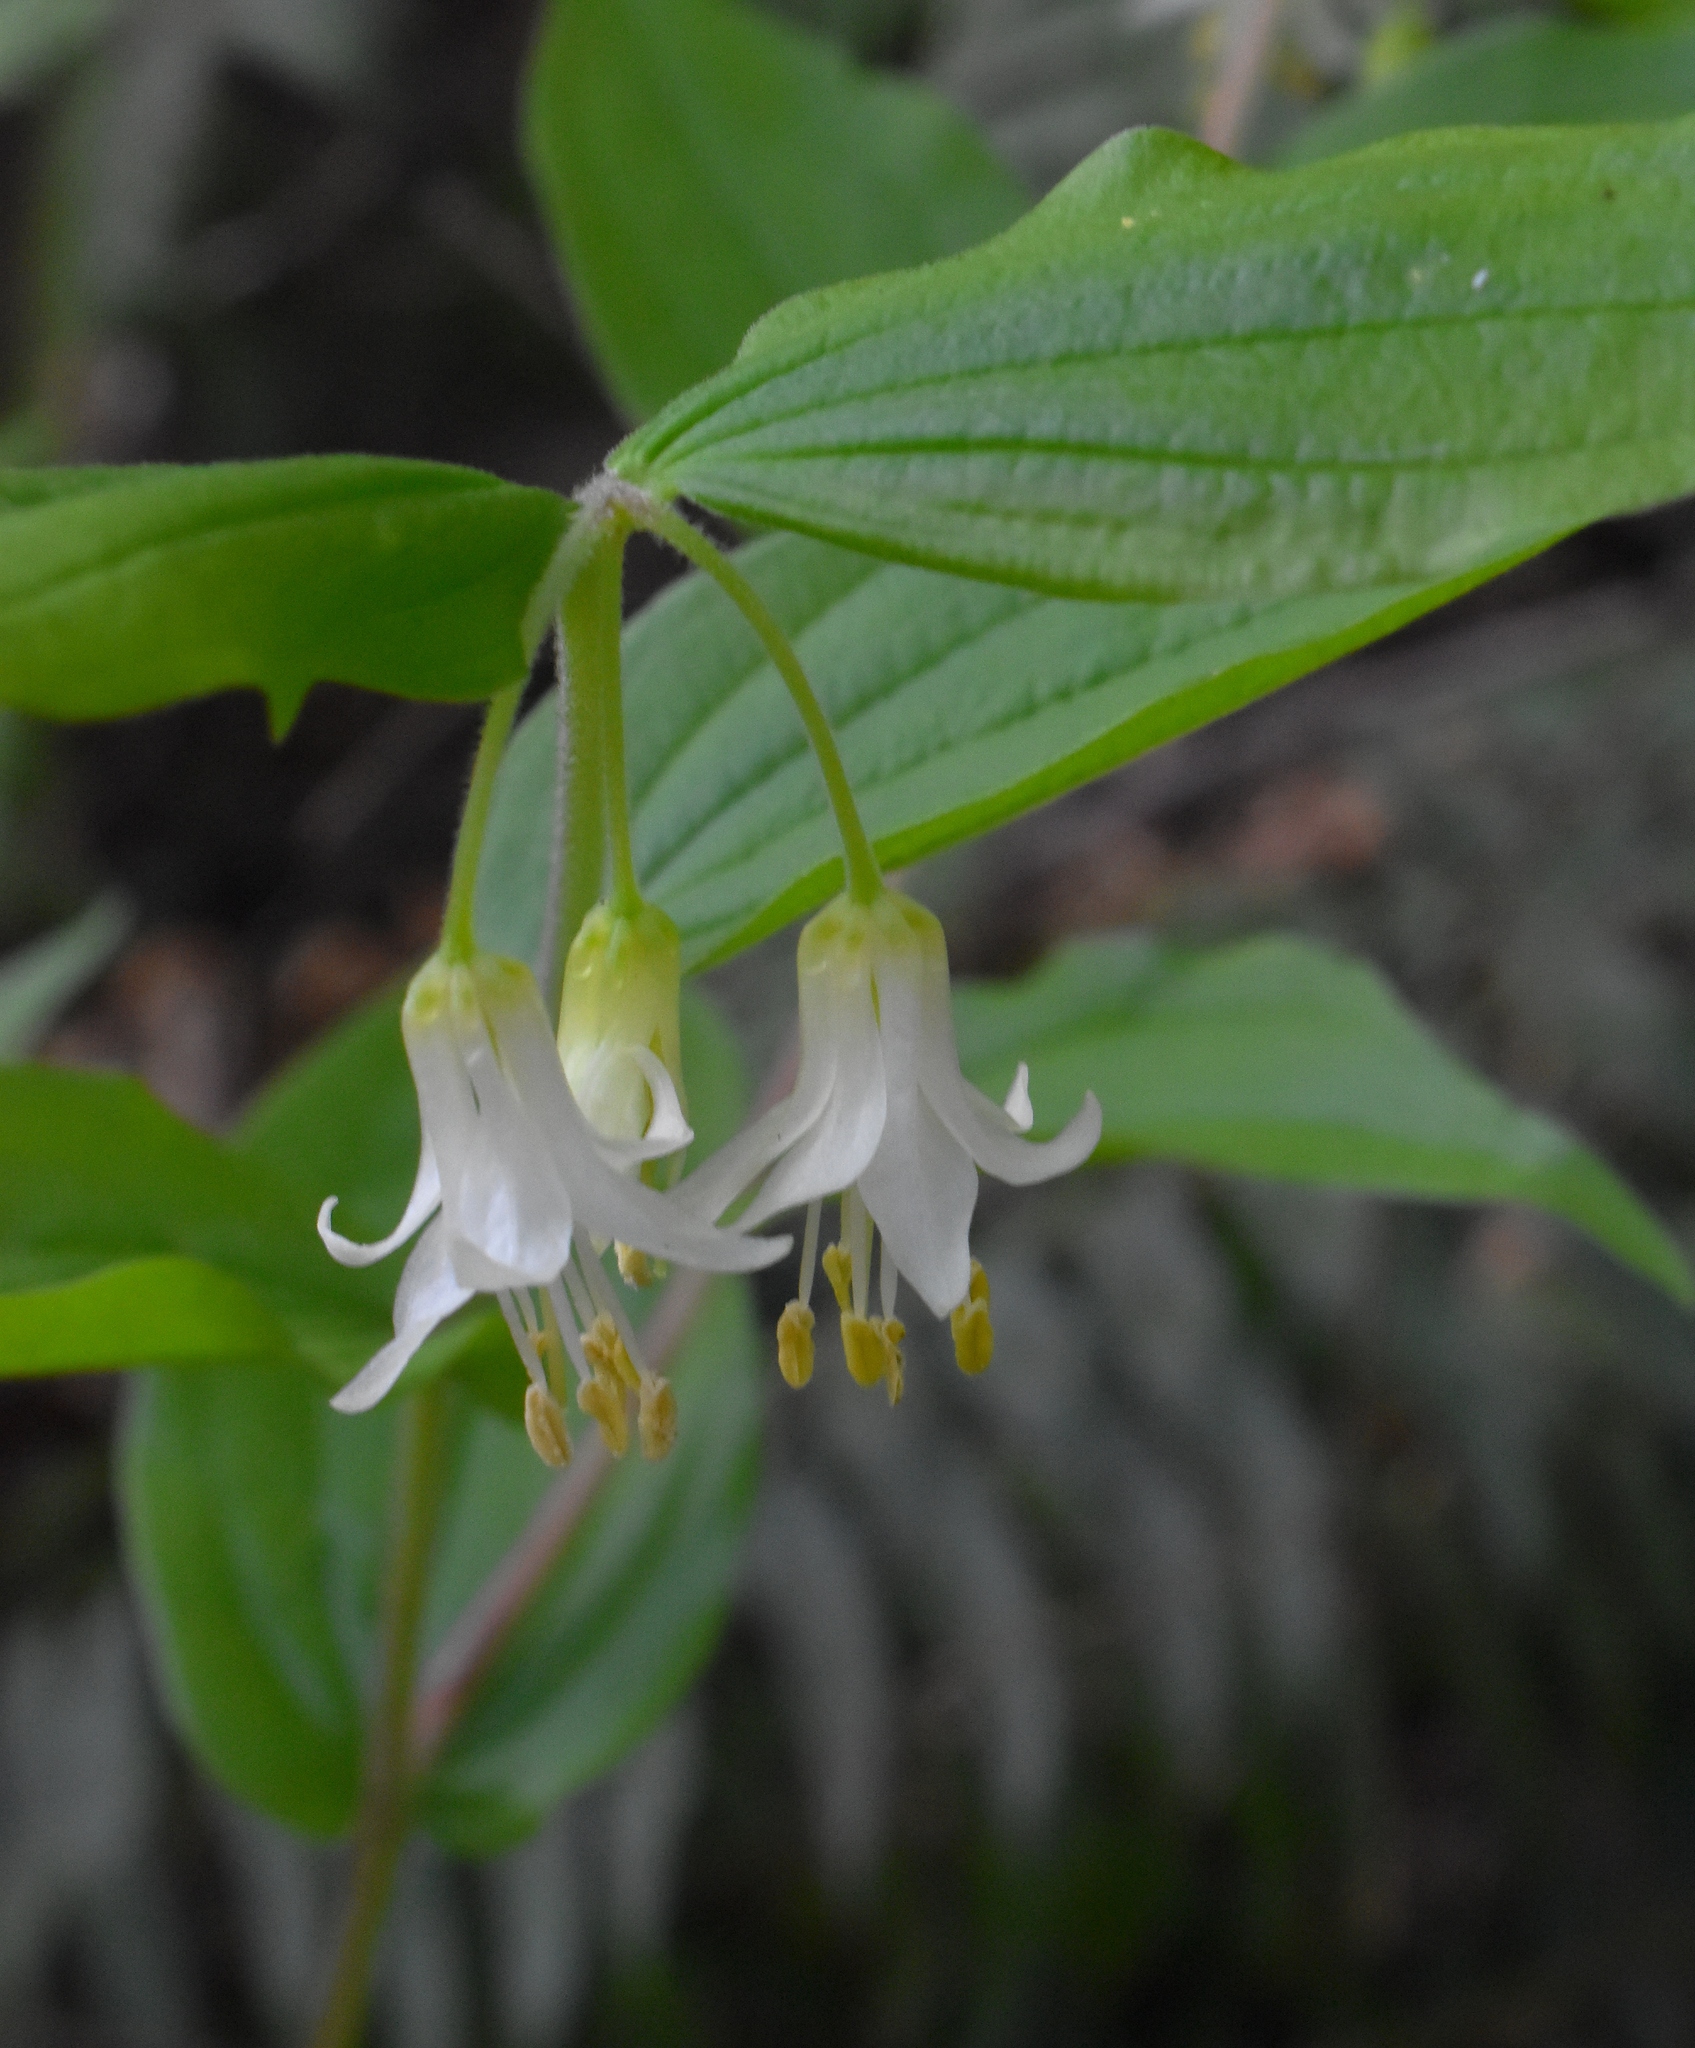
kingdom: Plantae
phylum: Tracheophyta
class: Liliopsida
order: Liliales
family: Liliaceae
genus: Prosartes
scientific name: Prosartes hookeri
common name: Fairy-bells
